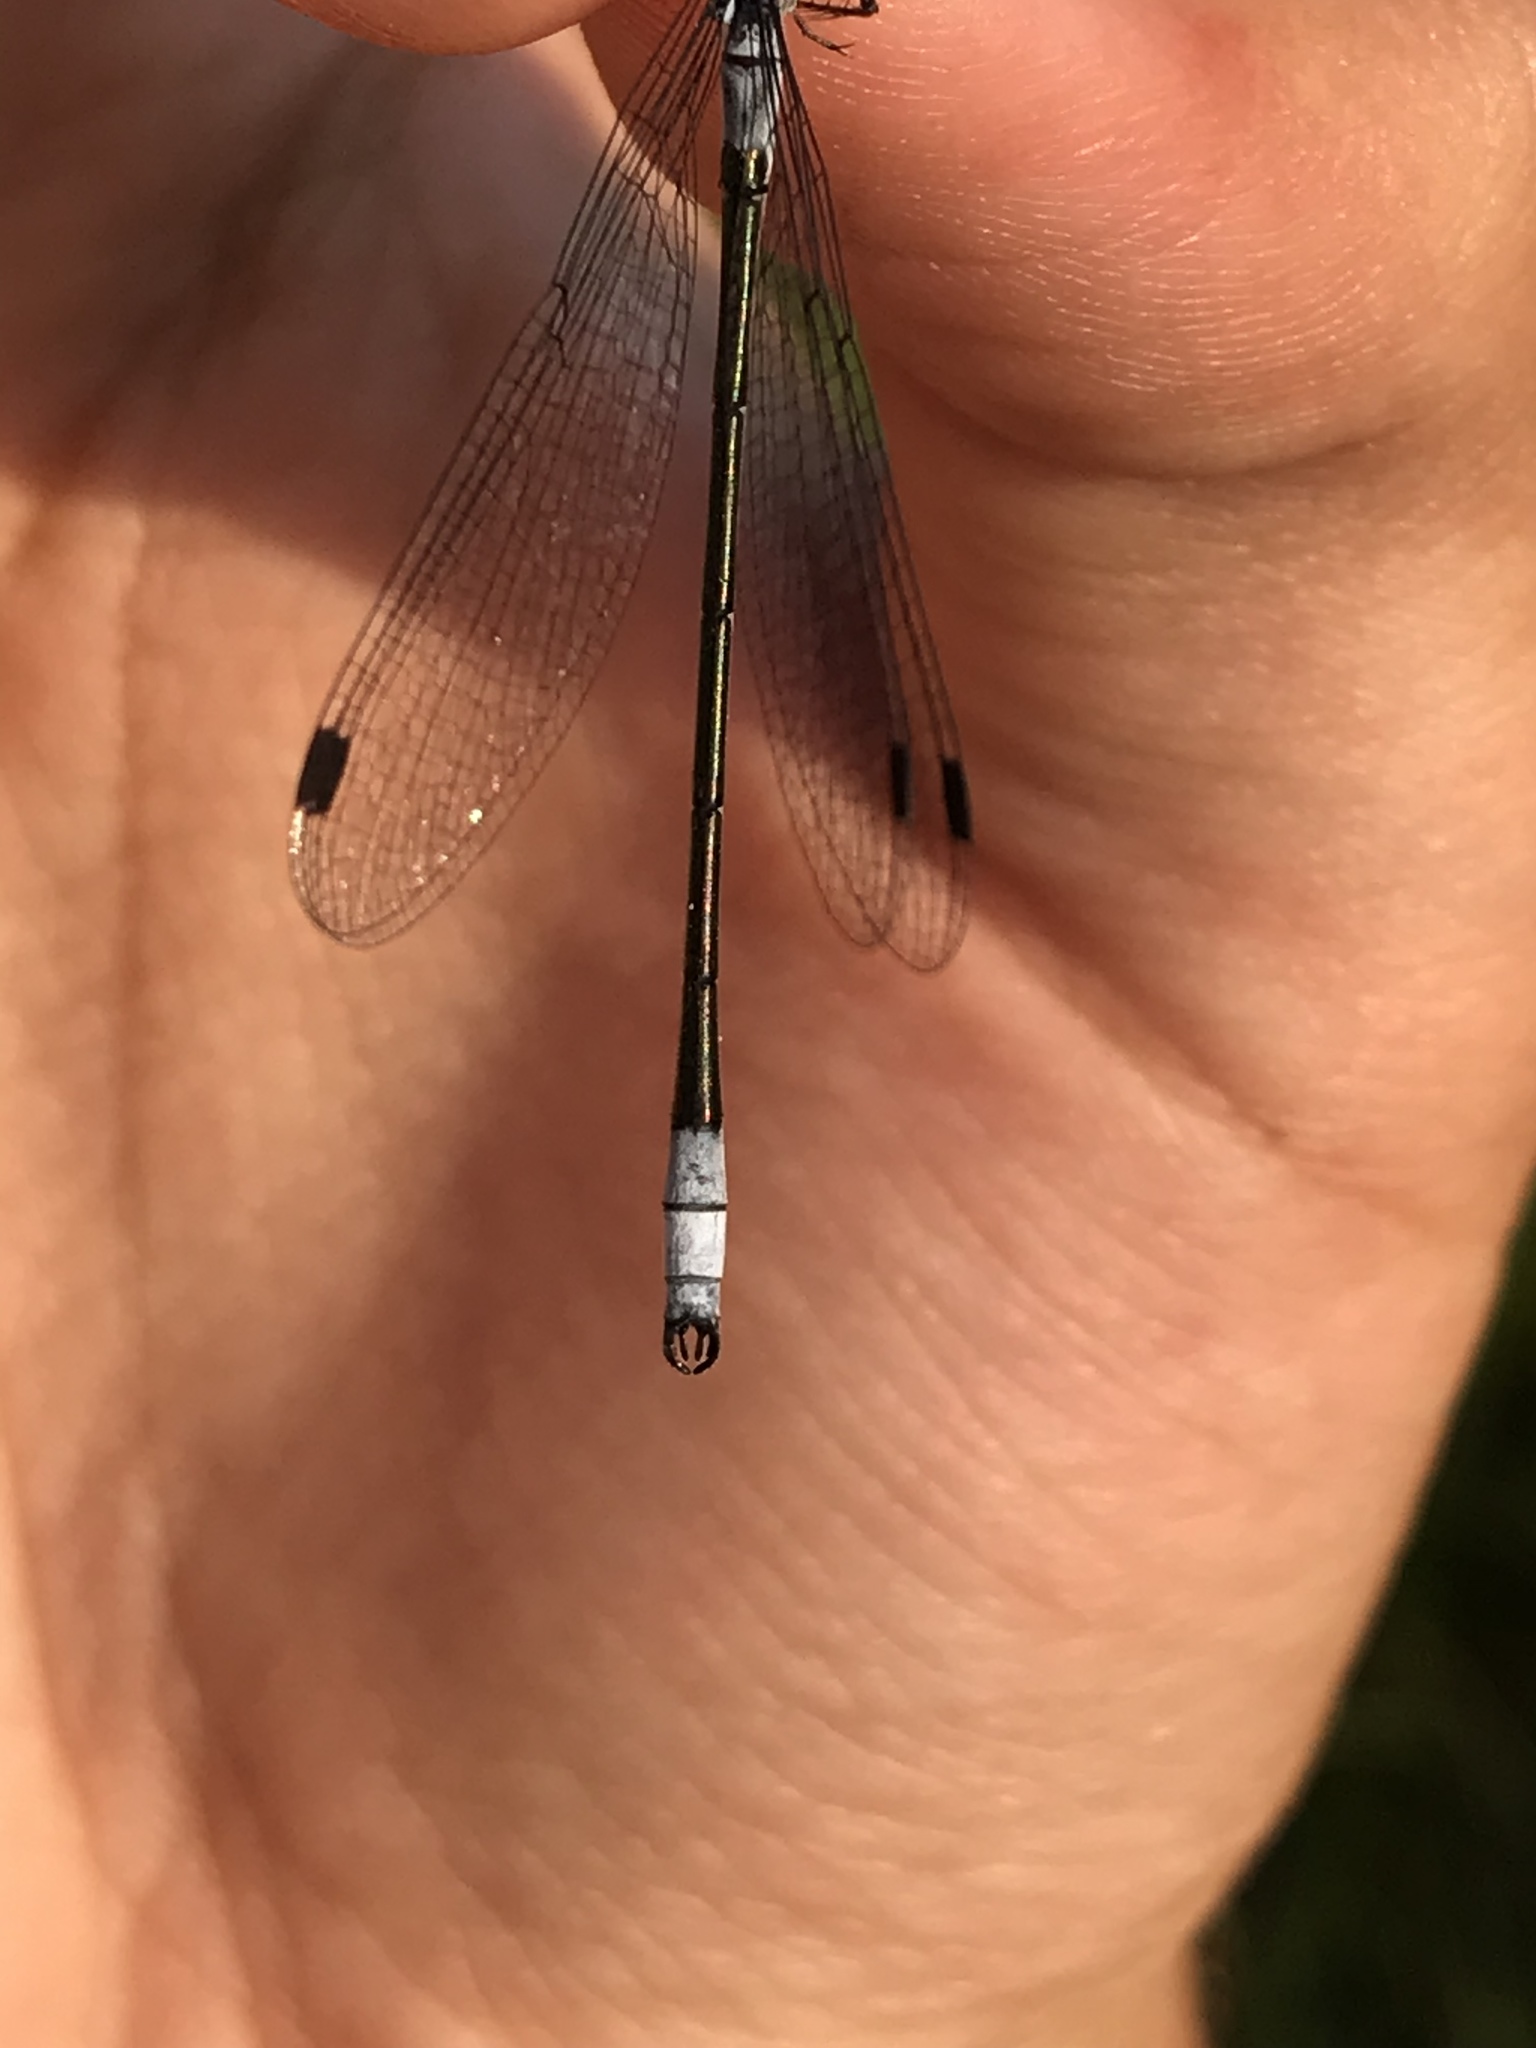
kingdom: Animalia
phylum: Arthropoda
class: Insecta
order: Odonata
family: Lestidae
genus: Lestes
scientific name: Lestes forcipatus
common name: Sweetflag spreadwing
